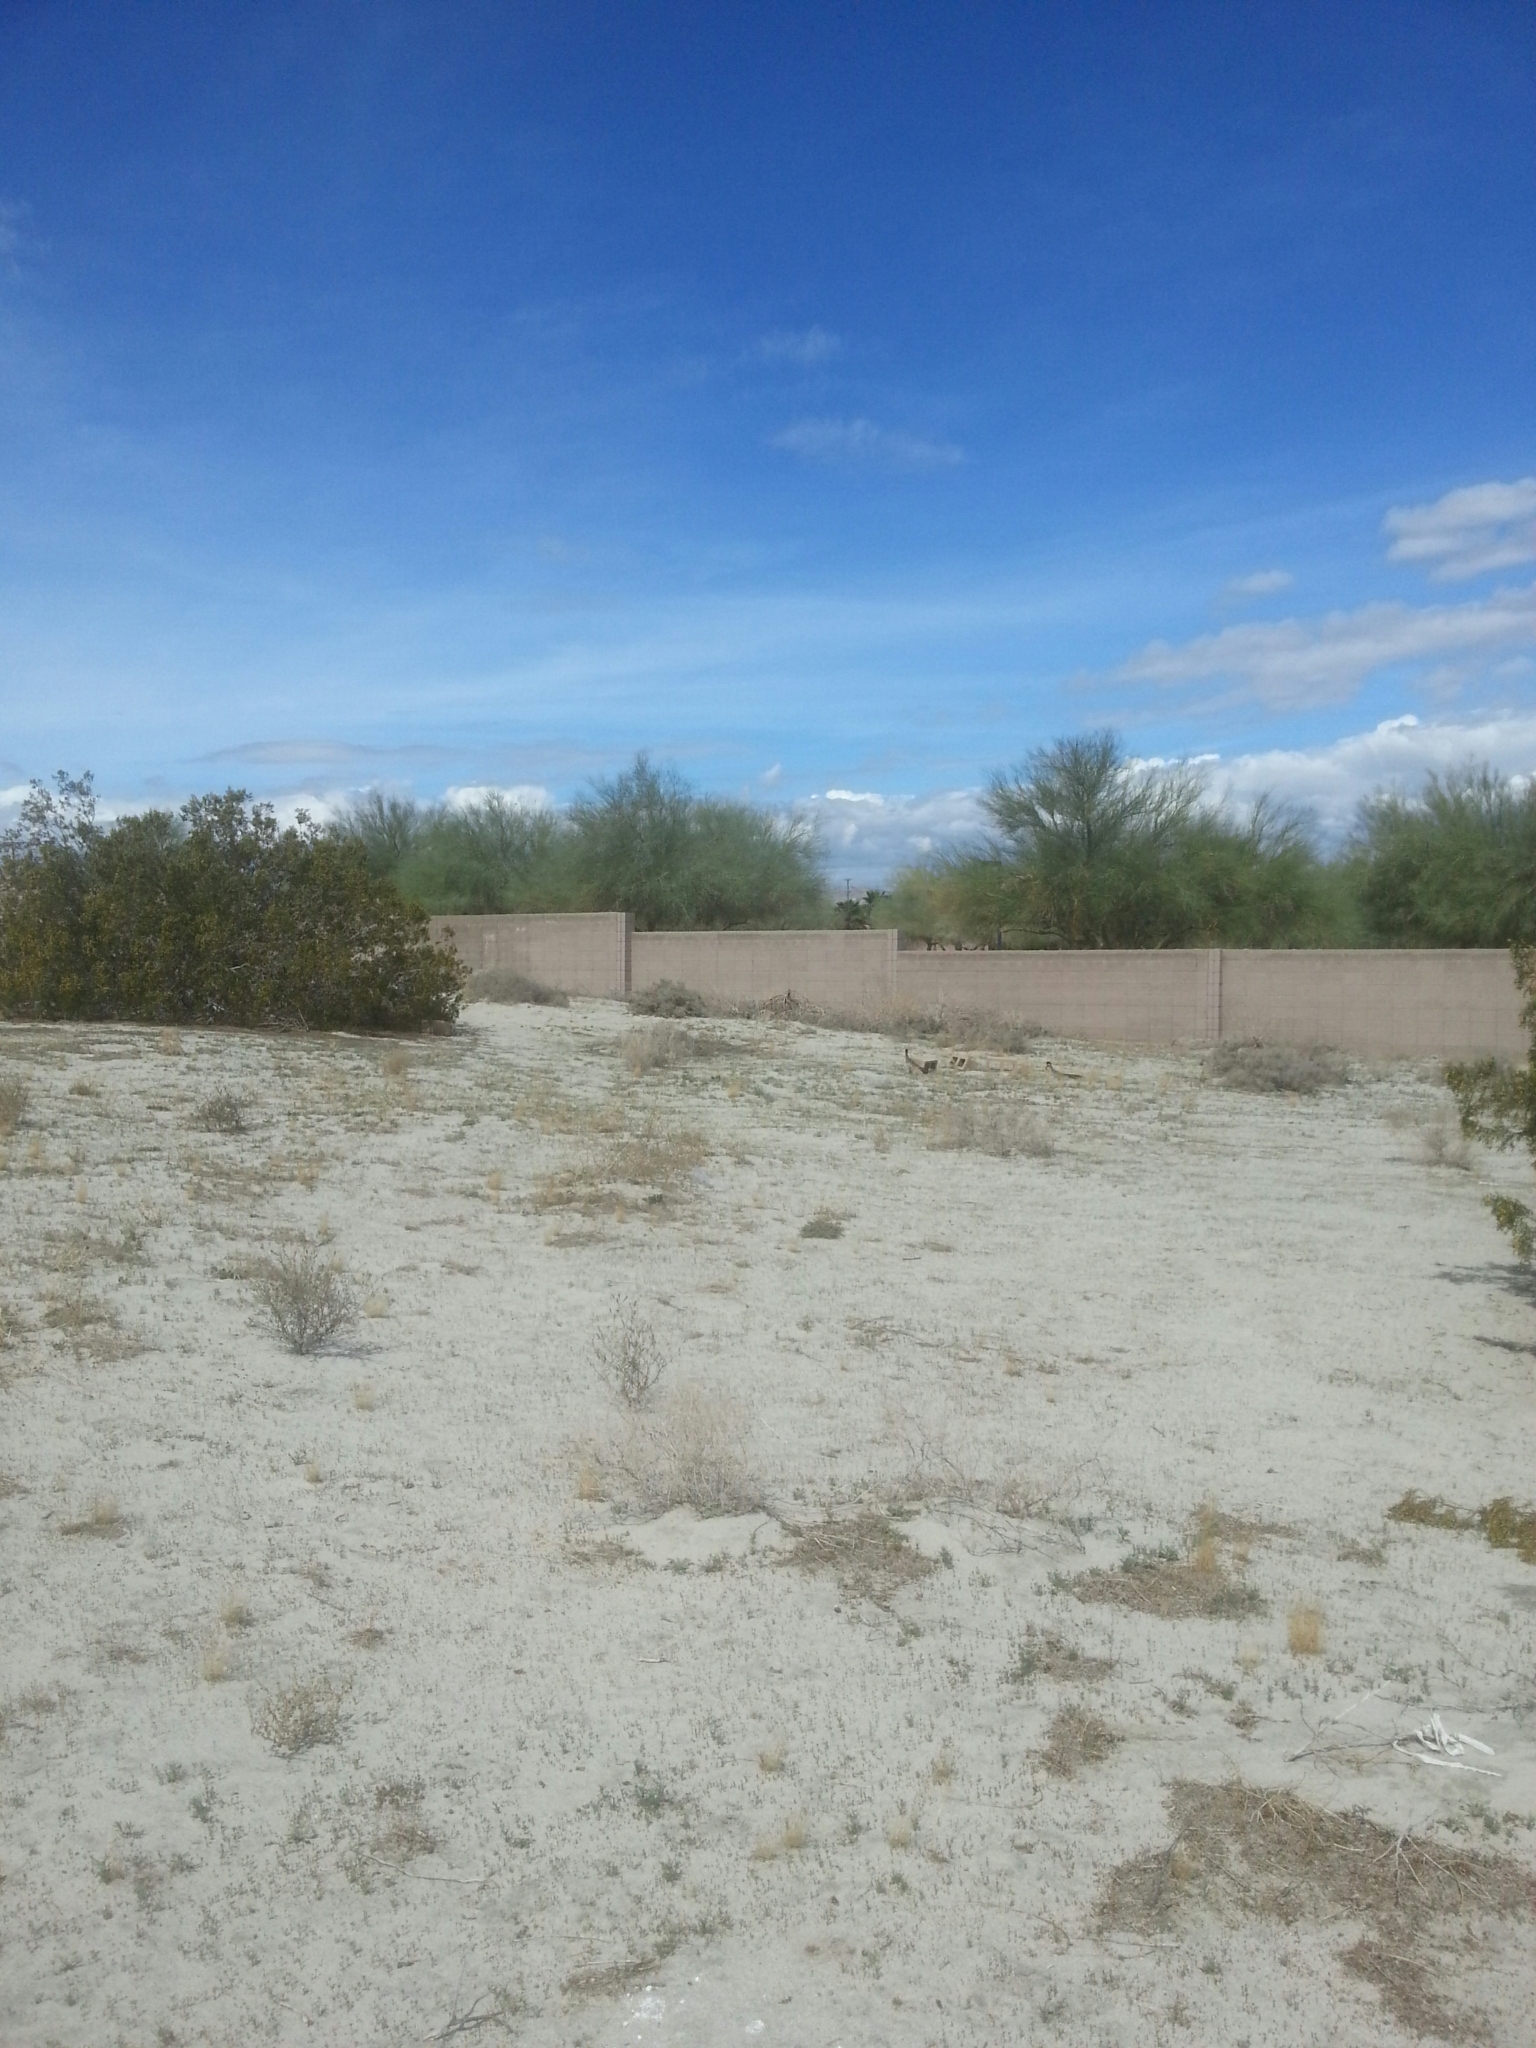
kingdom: Animalia
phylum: Chordata
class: Aves
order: Cuculiformes
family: Cuculidae
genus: Geococcyx
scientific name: Geococcyx californianus
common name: Greater roadrunner
